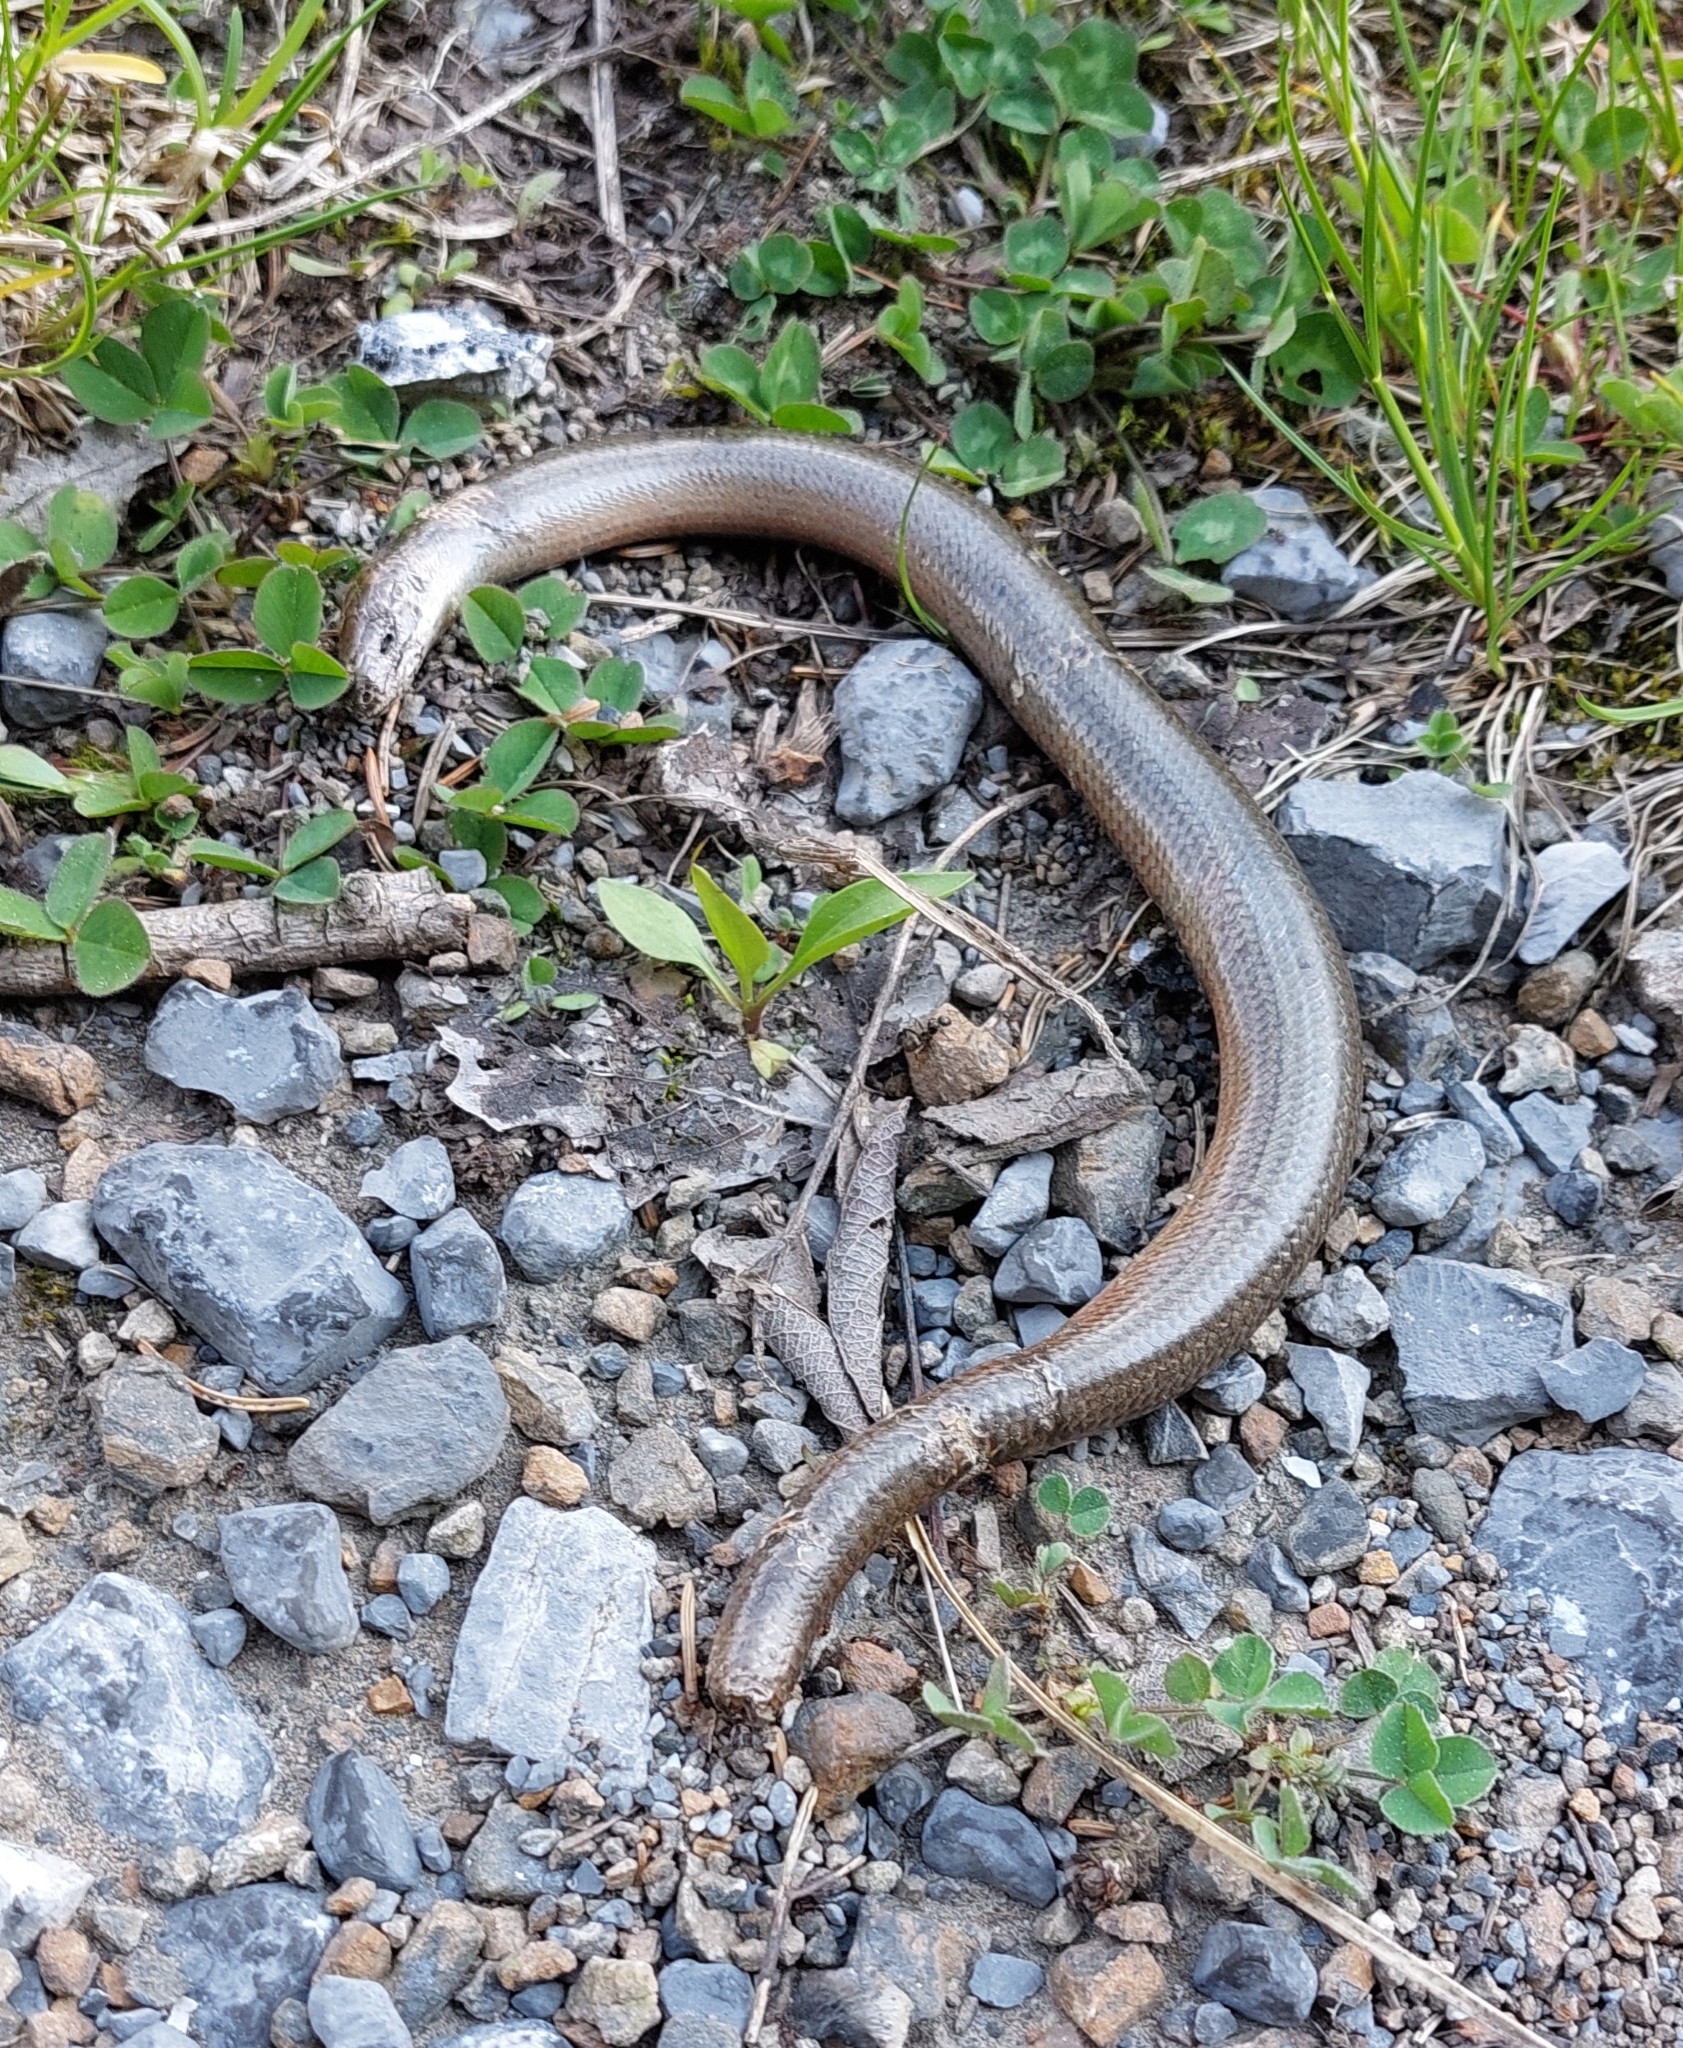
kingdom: Animalia
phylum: Chordata
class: Squamata
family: Anguidae
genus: Anguis
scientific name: Anguis fragilis
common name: Slow worm
